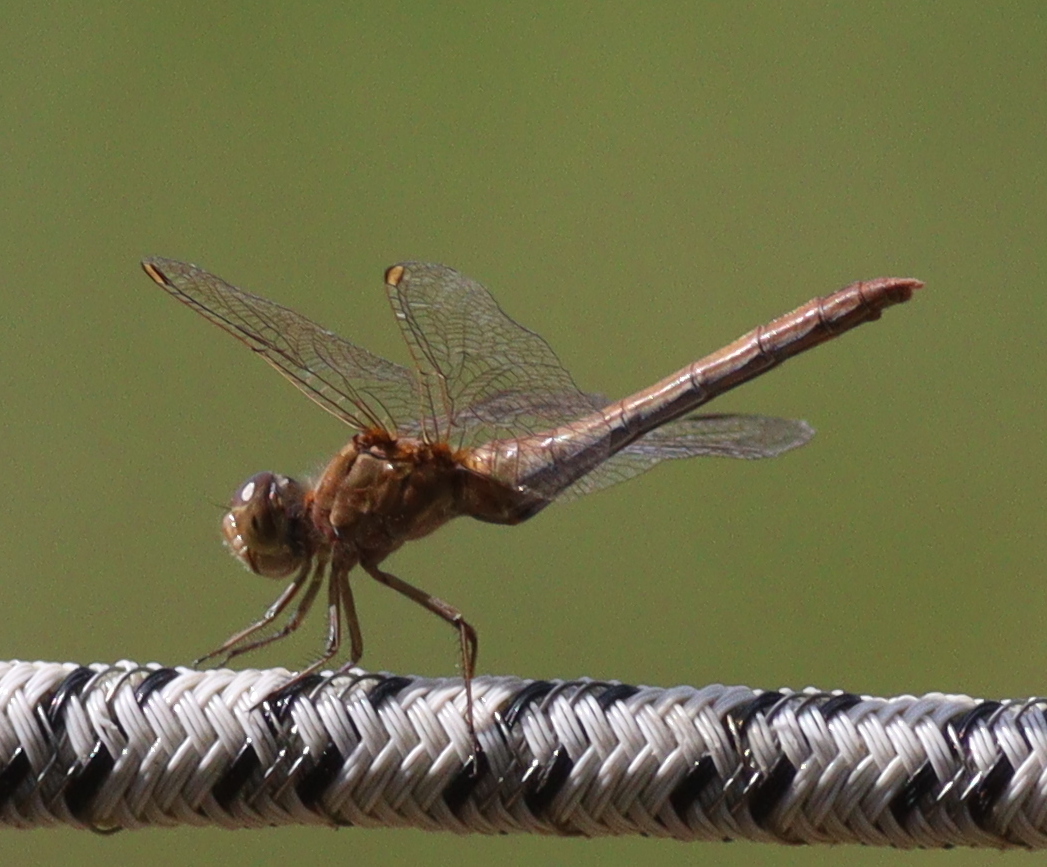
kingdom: Animalia
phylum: Arthropoda
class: Insecta
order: Odonata
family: Libellulidae
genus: Sympetrum
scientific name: Sympetrum meridionale
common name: Southern darter
